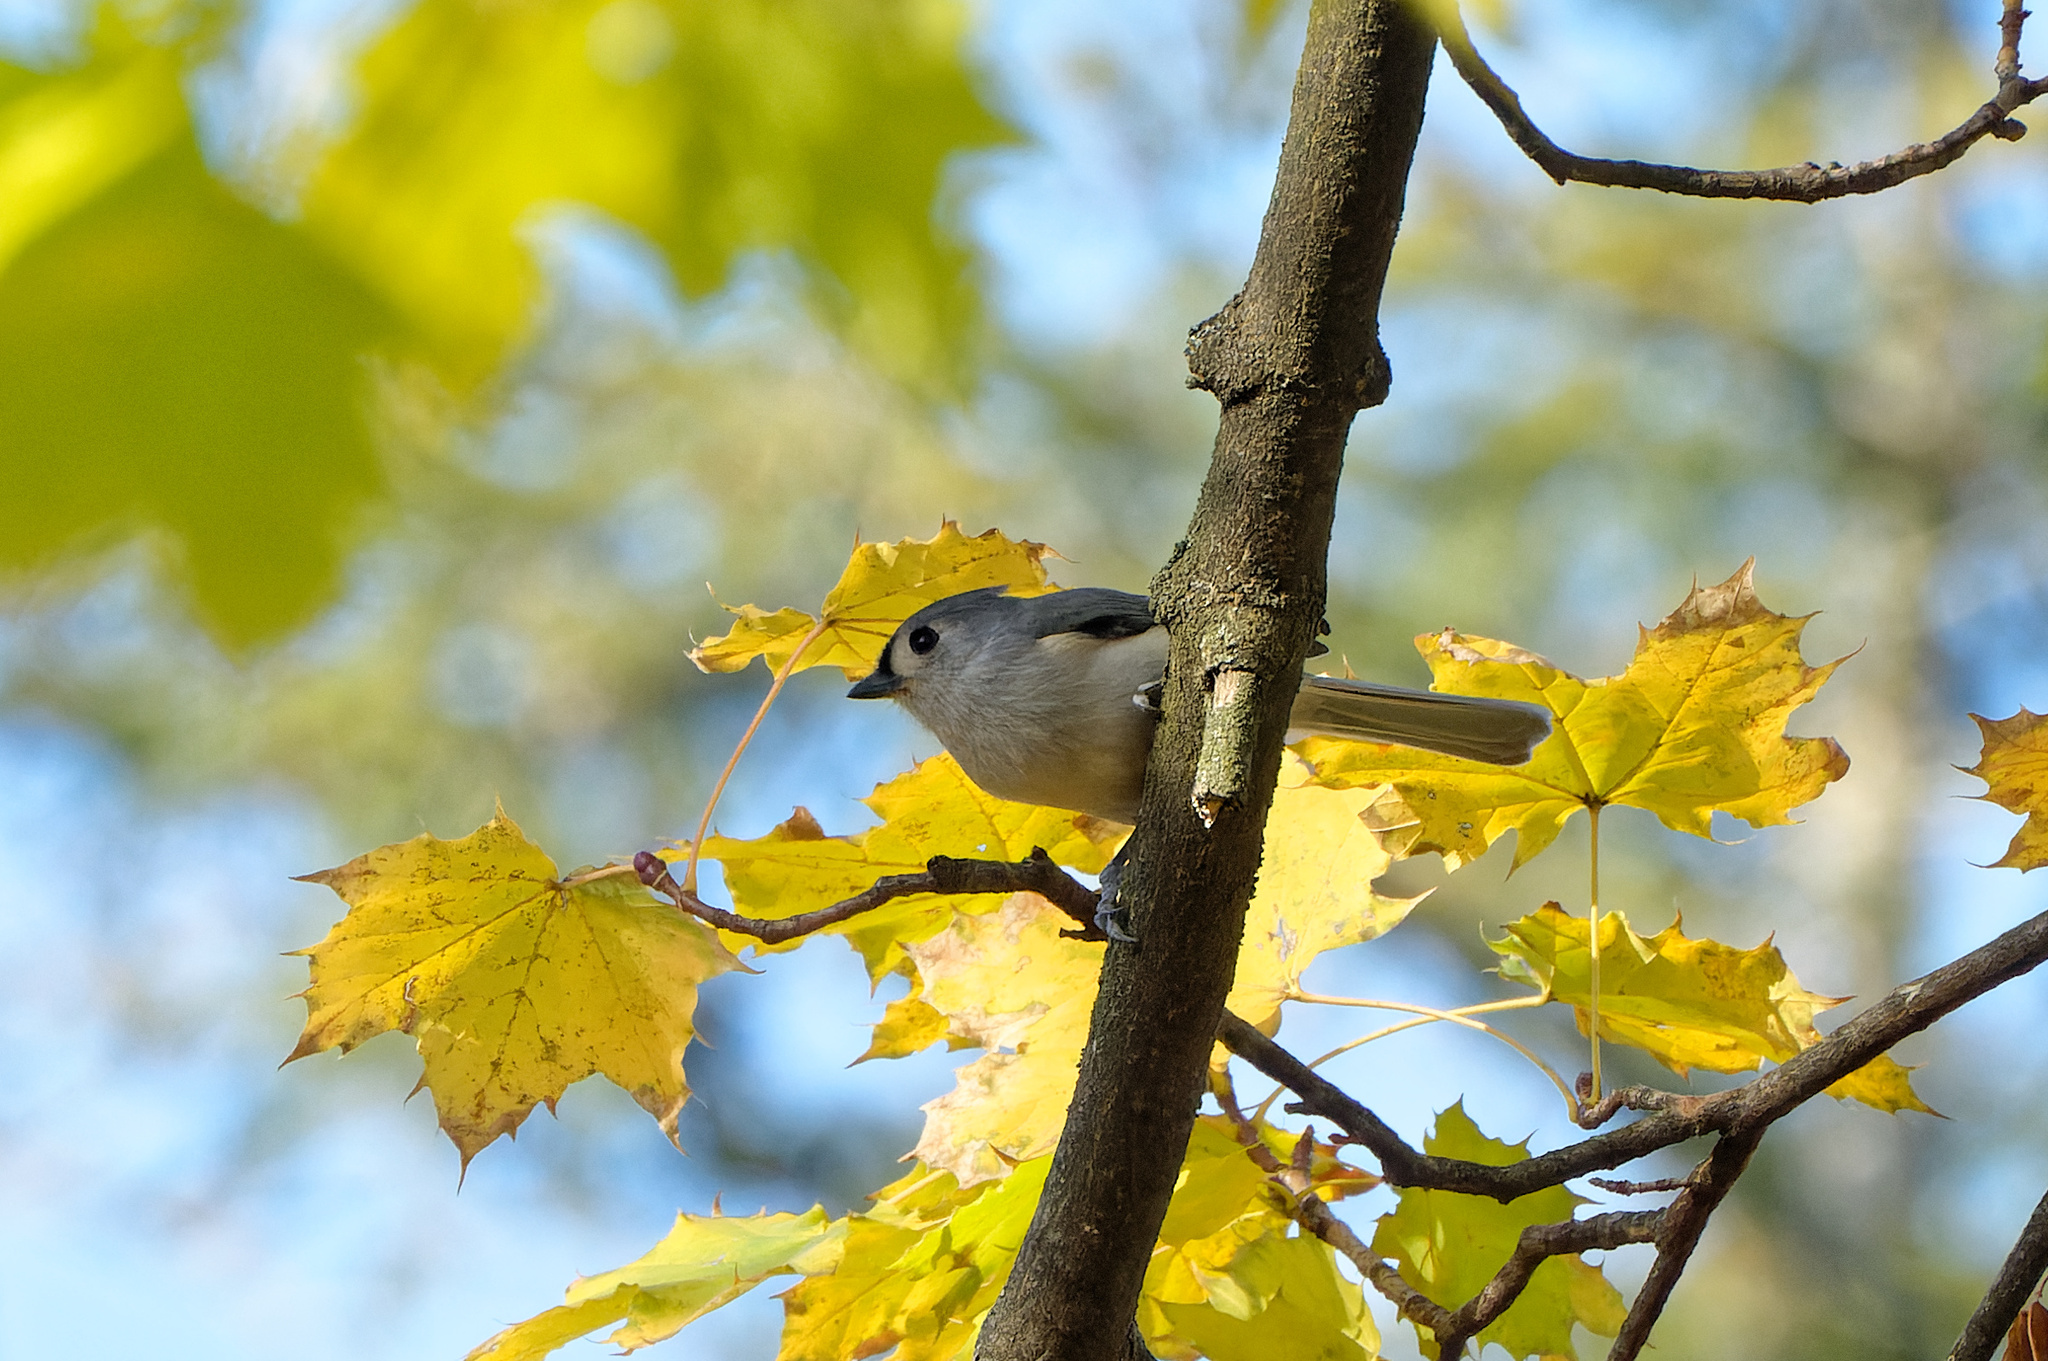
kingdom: Animalia
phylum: Chordata
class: Aves
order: Passeriformes
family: Paridae
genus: Baeolophus
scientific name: Baeolophus bicolor
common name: Tufted titmouse
